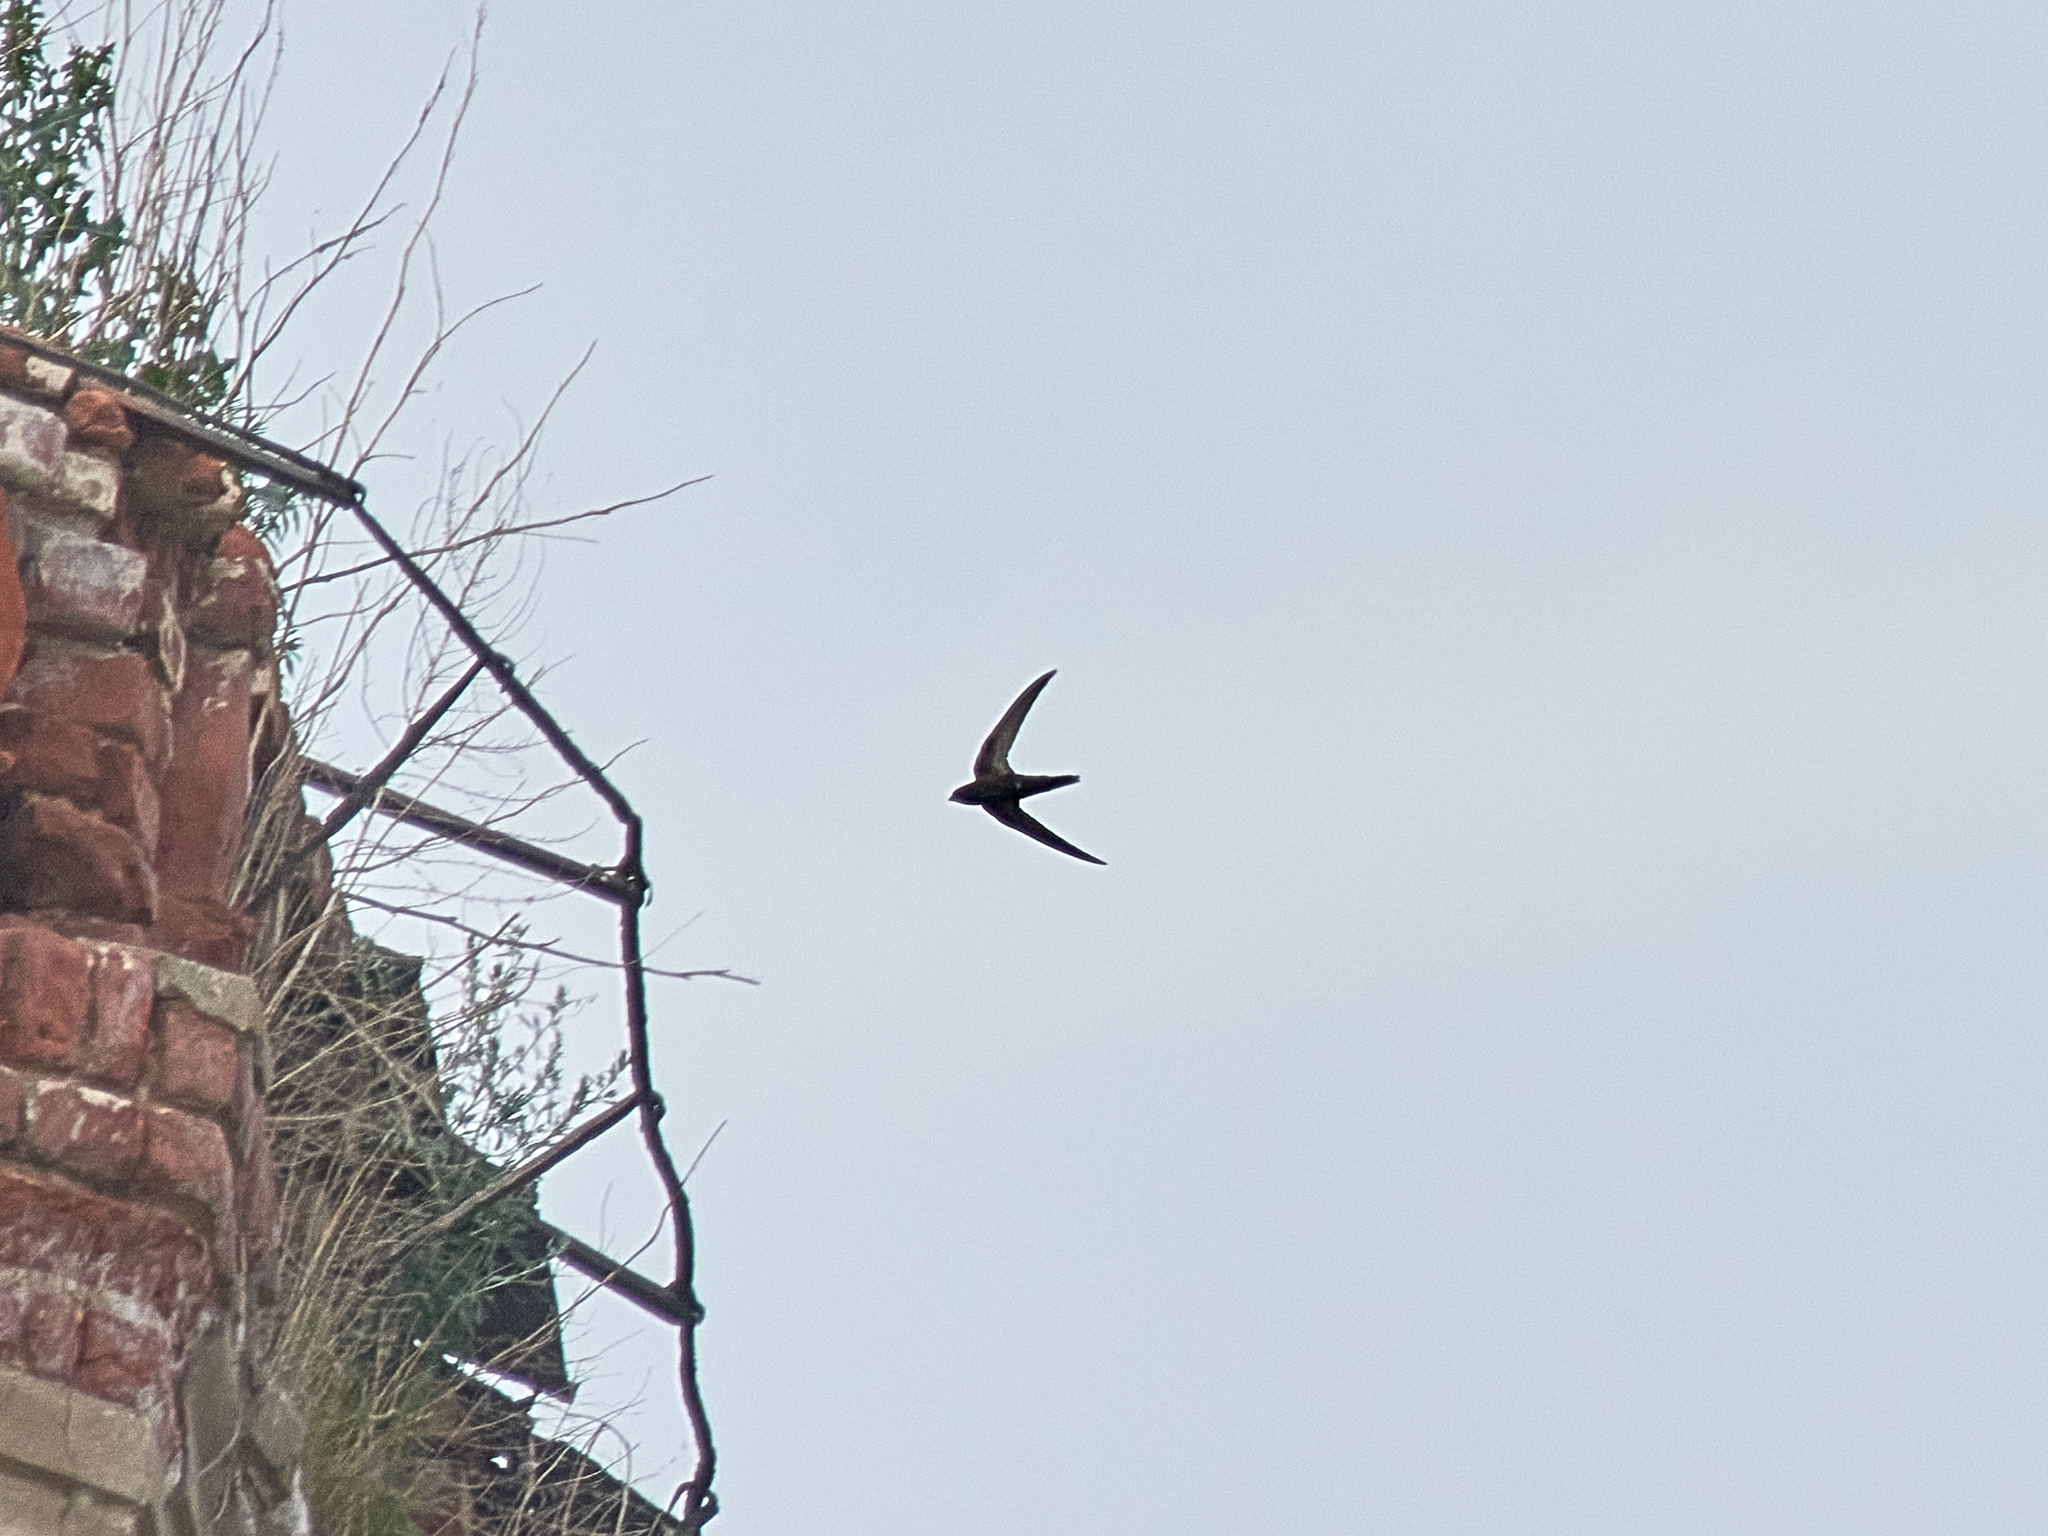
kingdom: Animalia
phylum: Chordata
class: Aves
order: Apodiformes
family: Apodidae
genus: Apus
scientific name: Apus apus
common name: Common swift
